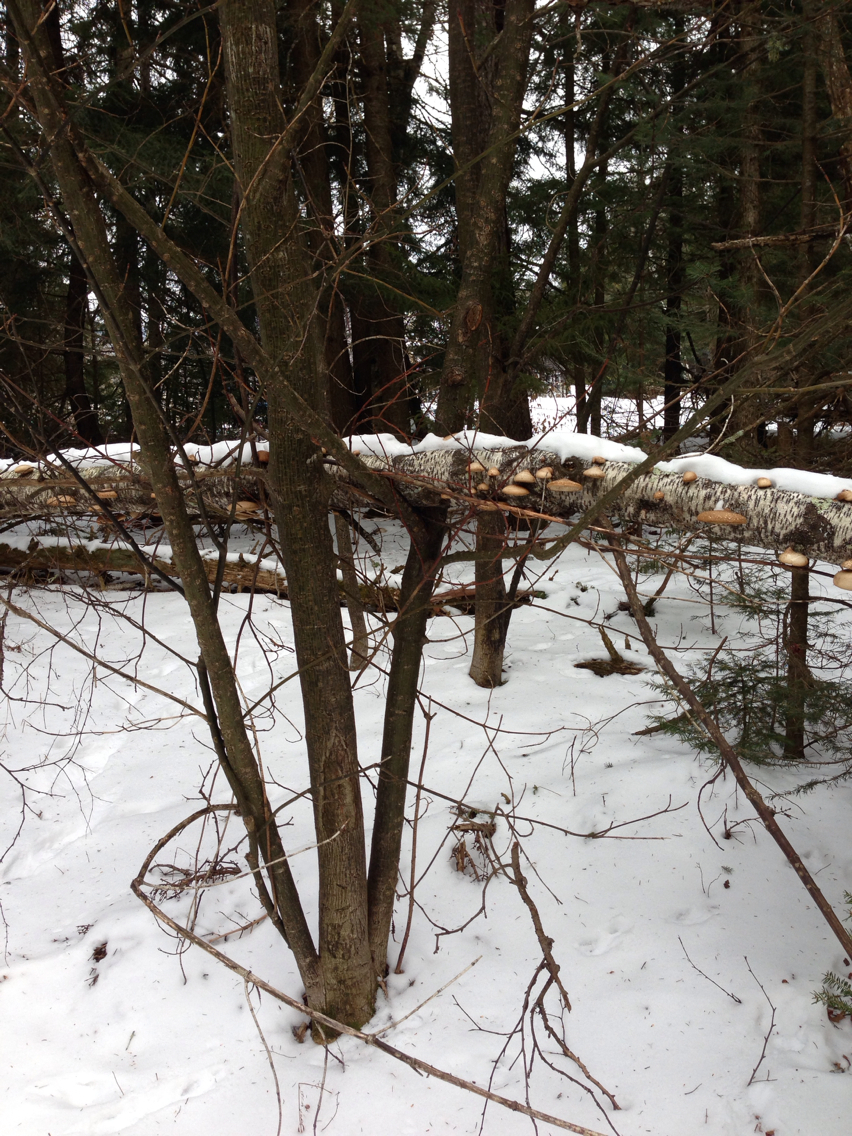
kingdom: Plantae
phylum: Tracheophyta
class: Magnoliopsida
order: Sapindales
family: Sapindaceae
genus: Acer
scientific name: Acer pensylvanicum
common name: Moosewood
